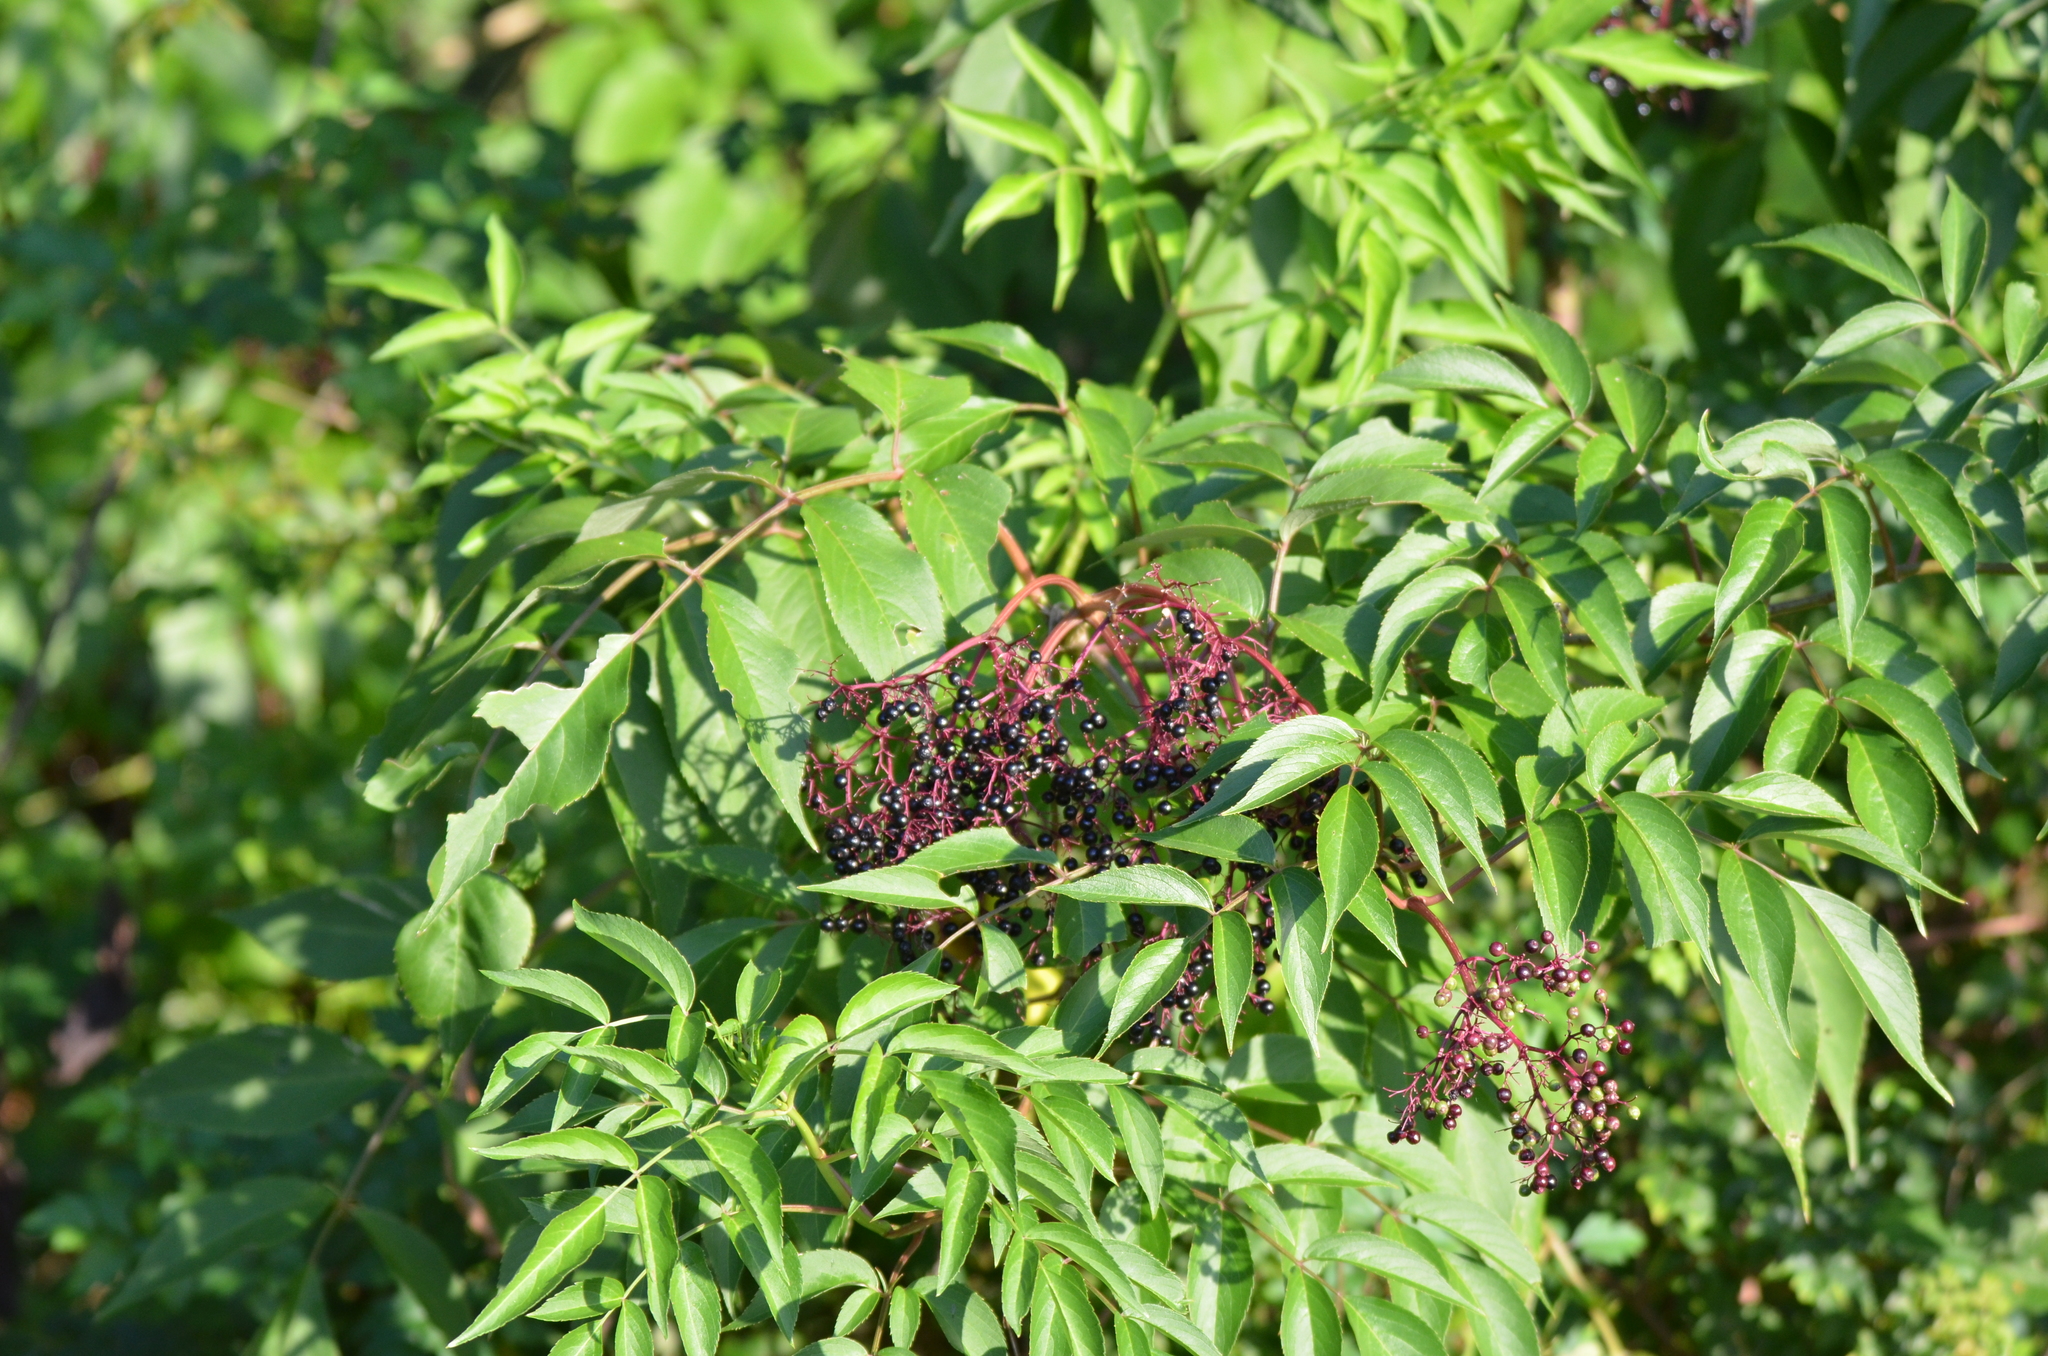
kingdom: Plantae
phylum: Tracheophyta
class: Magnoliopsida
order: Dipsacales
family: Viburnaceae
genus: Sambucus
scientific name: Sambucus canadensis
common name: American elder
